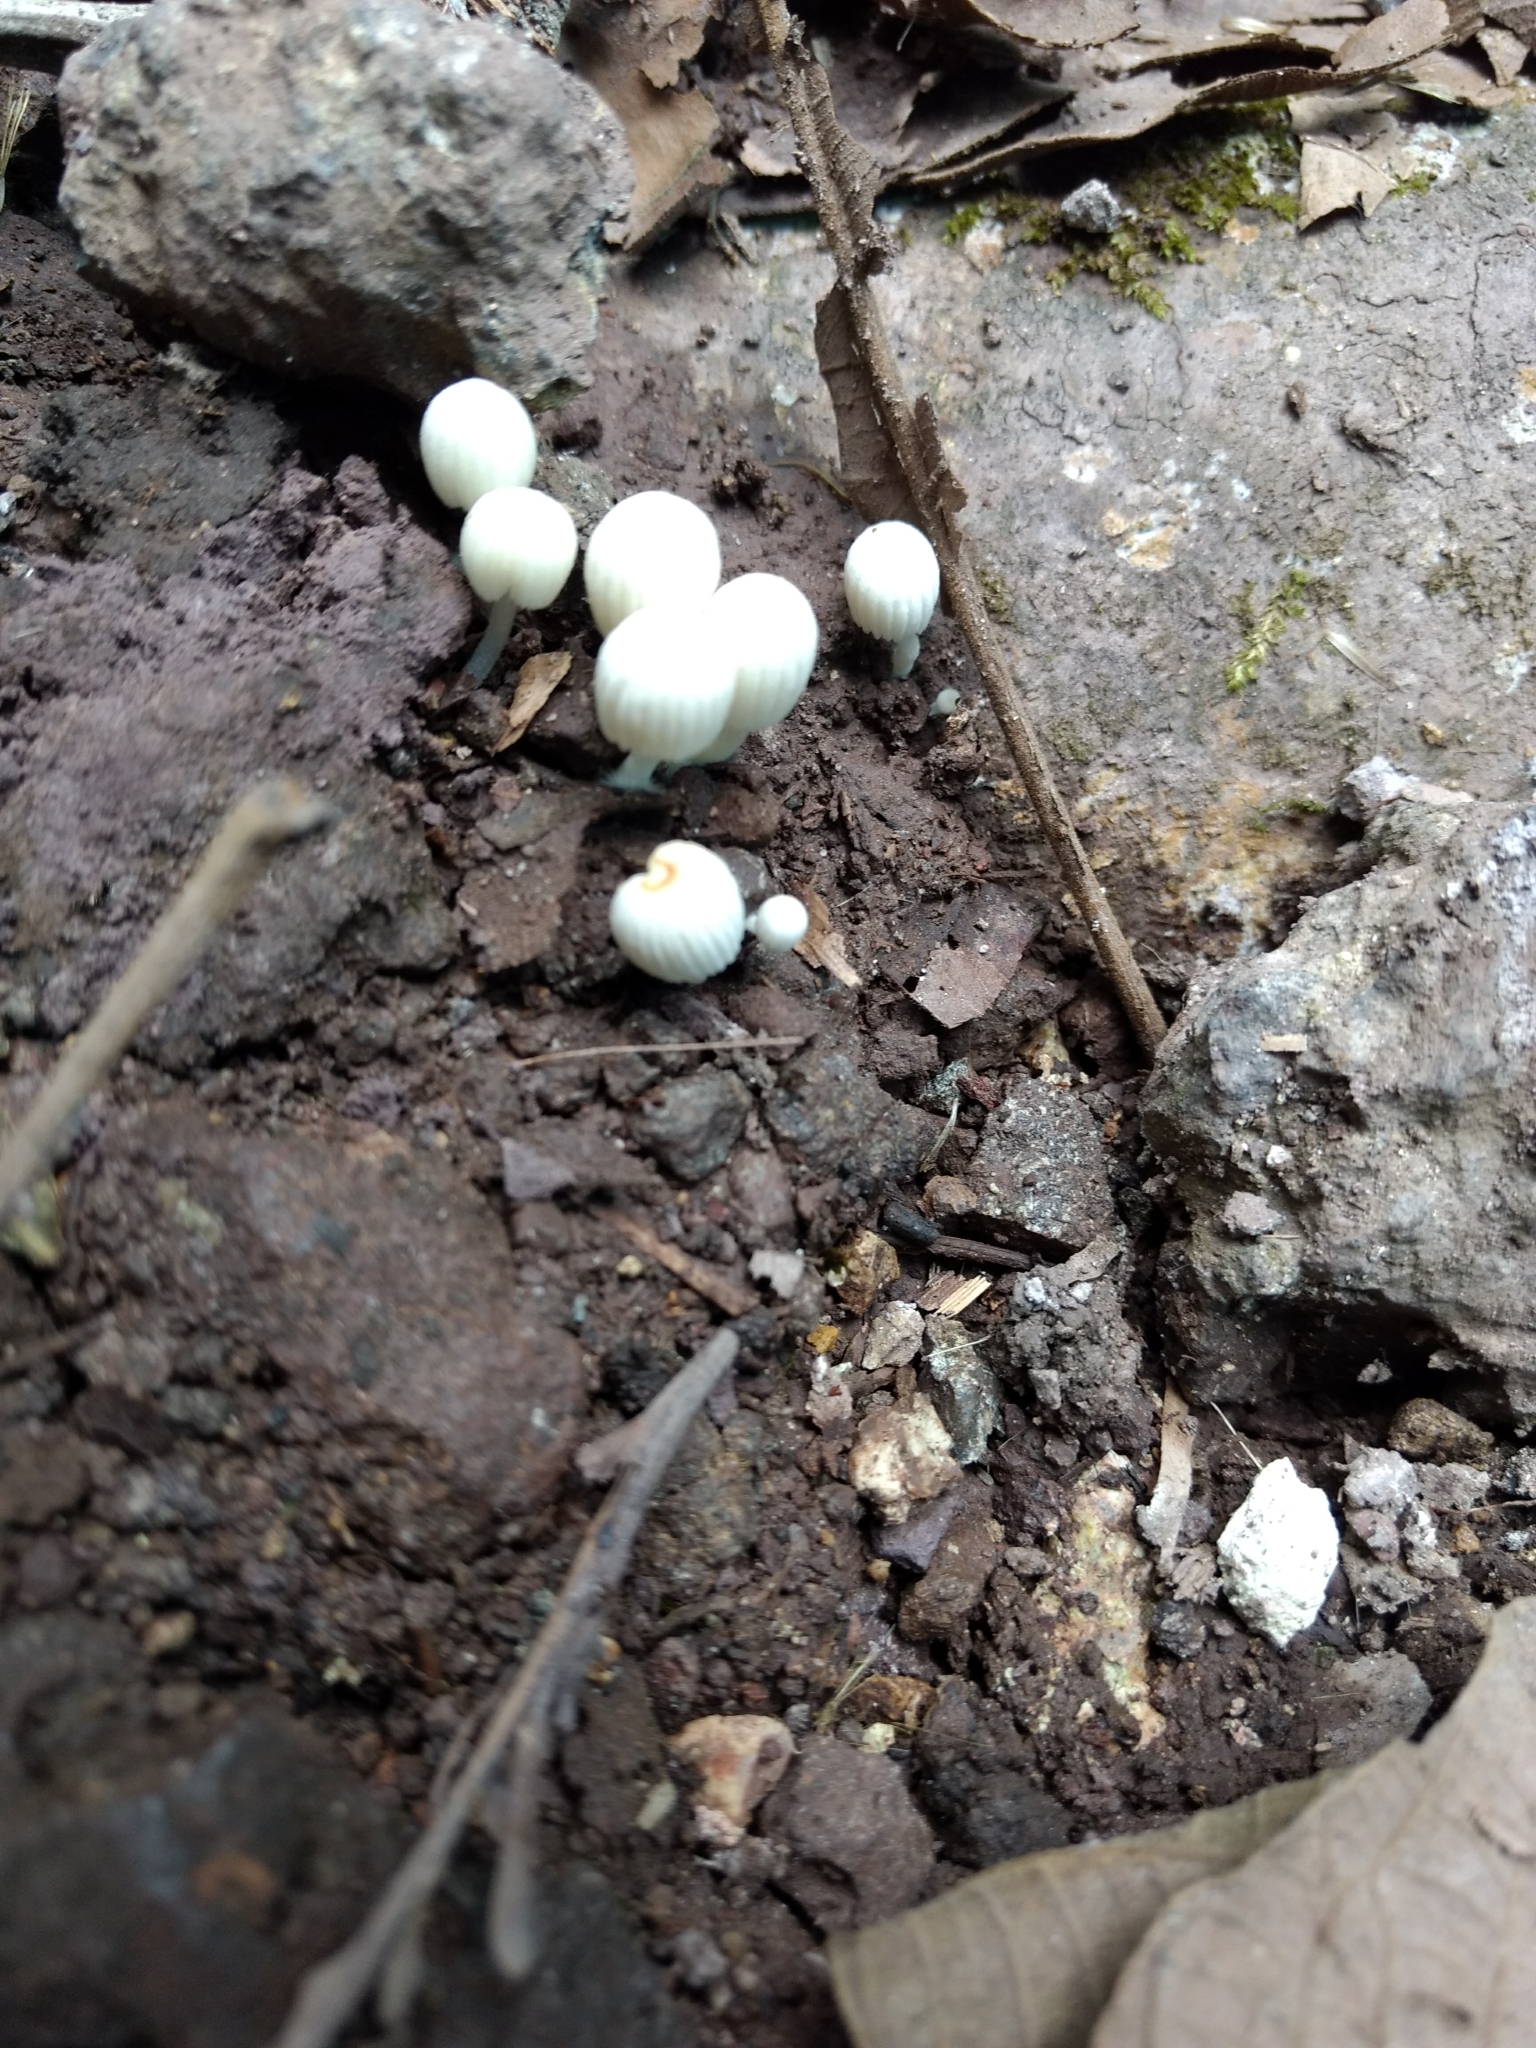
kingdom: Fungi
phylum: Basidiomycota
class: Agaricomycetes
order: Agaricales
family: Psathyrellaceae
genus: Coprinellus
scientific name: Coprinellus disseminatus
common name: Fairies' bonnets
